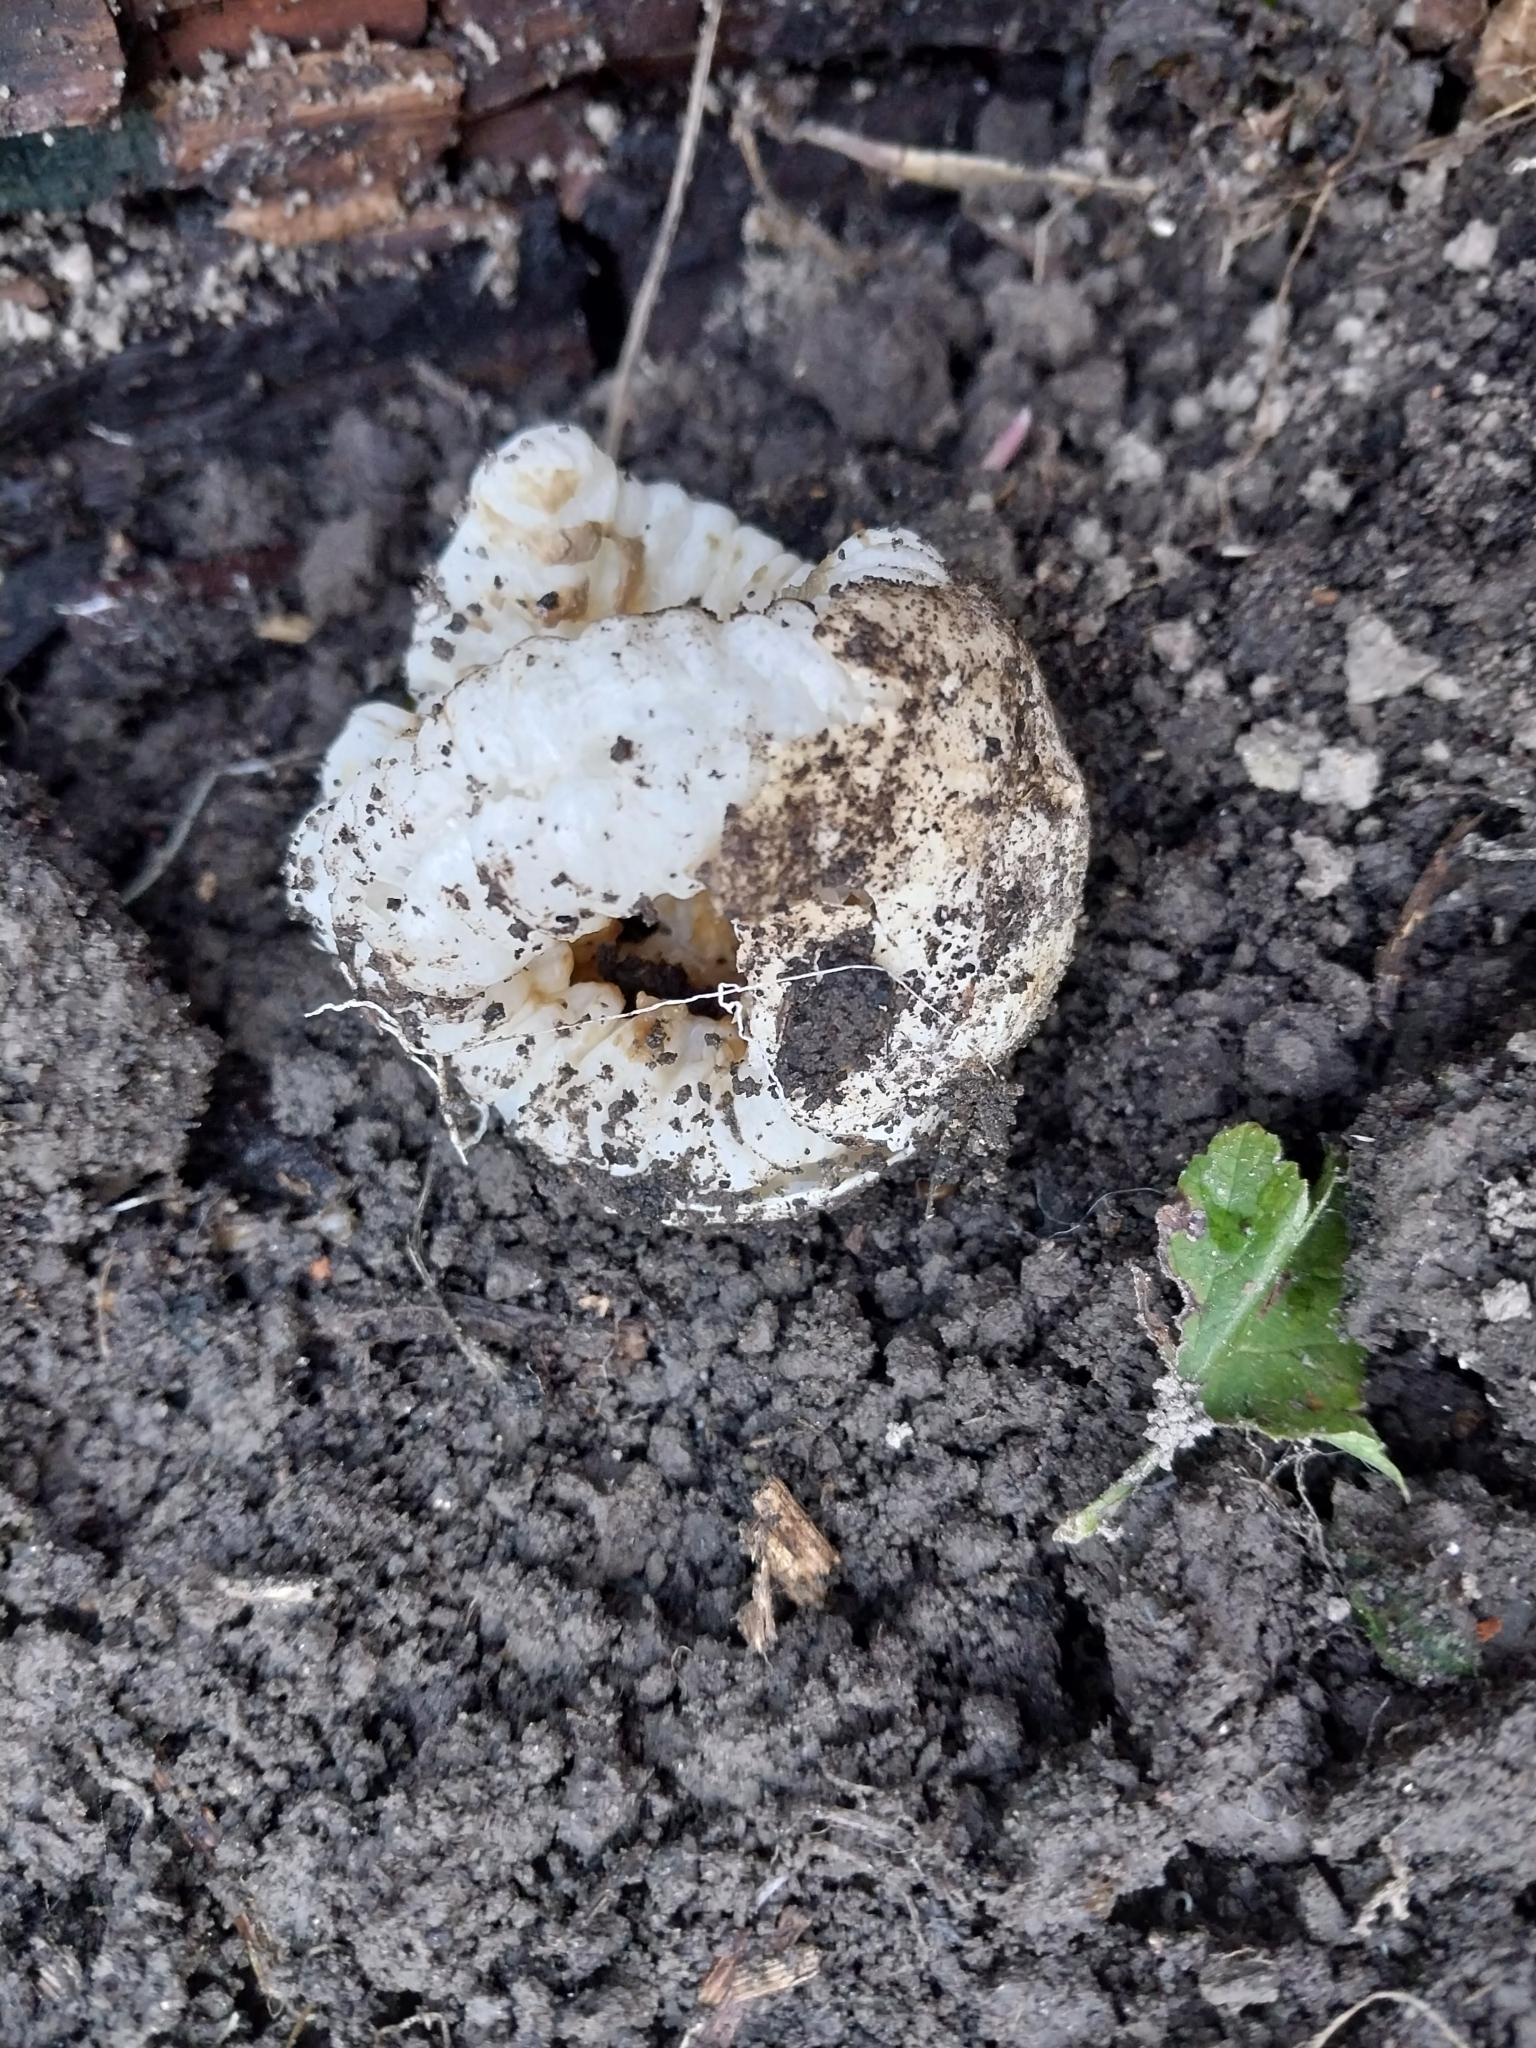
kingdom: Fungi
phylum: Basidiomycota
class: Agaricomycetes
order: Phallales
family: Phallaceae
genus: Ileodictyon
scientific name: Ileodictyon cibarium
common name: Basket fungus
